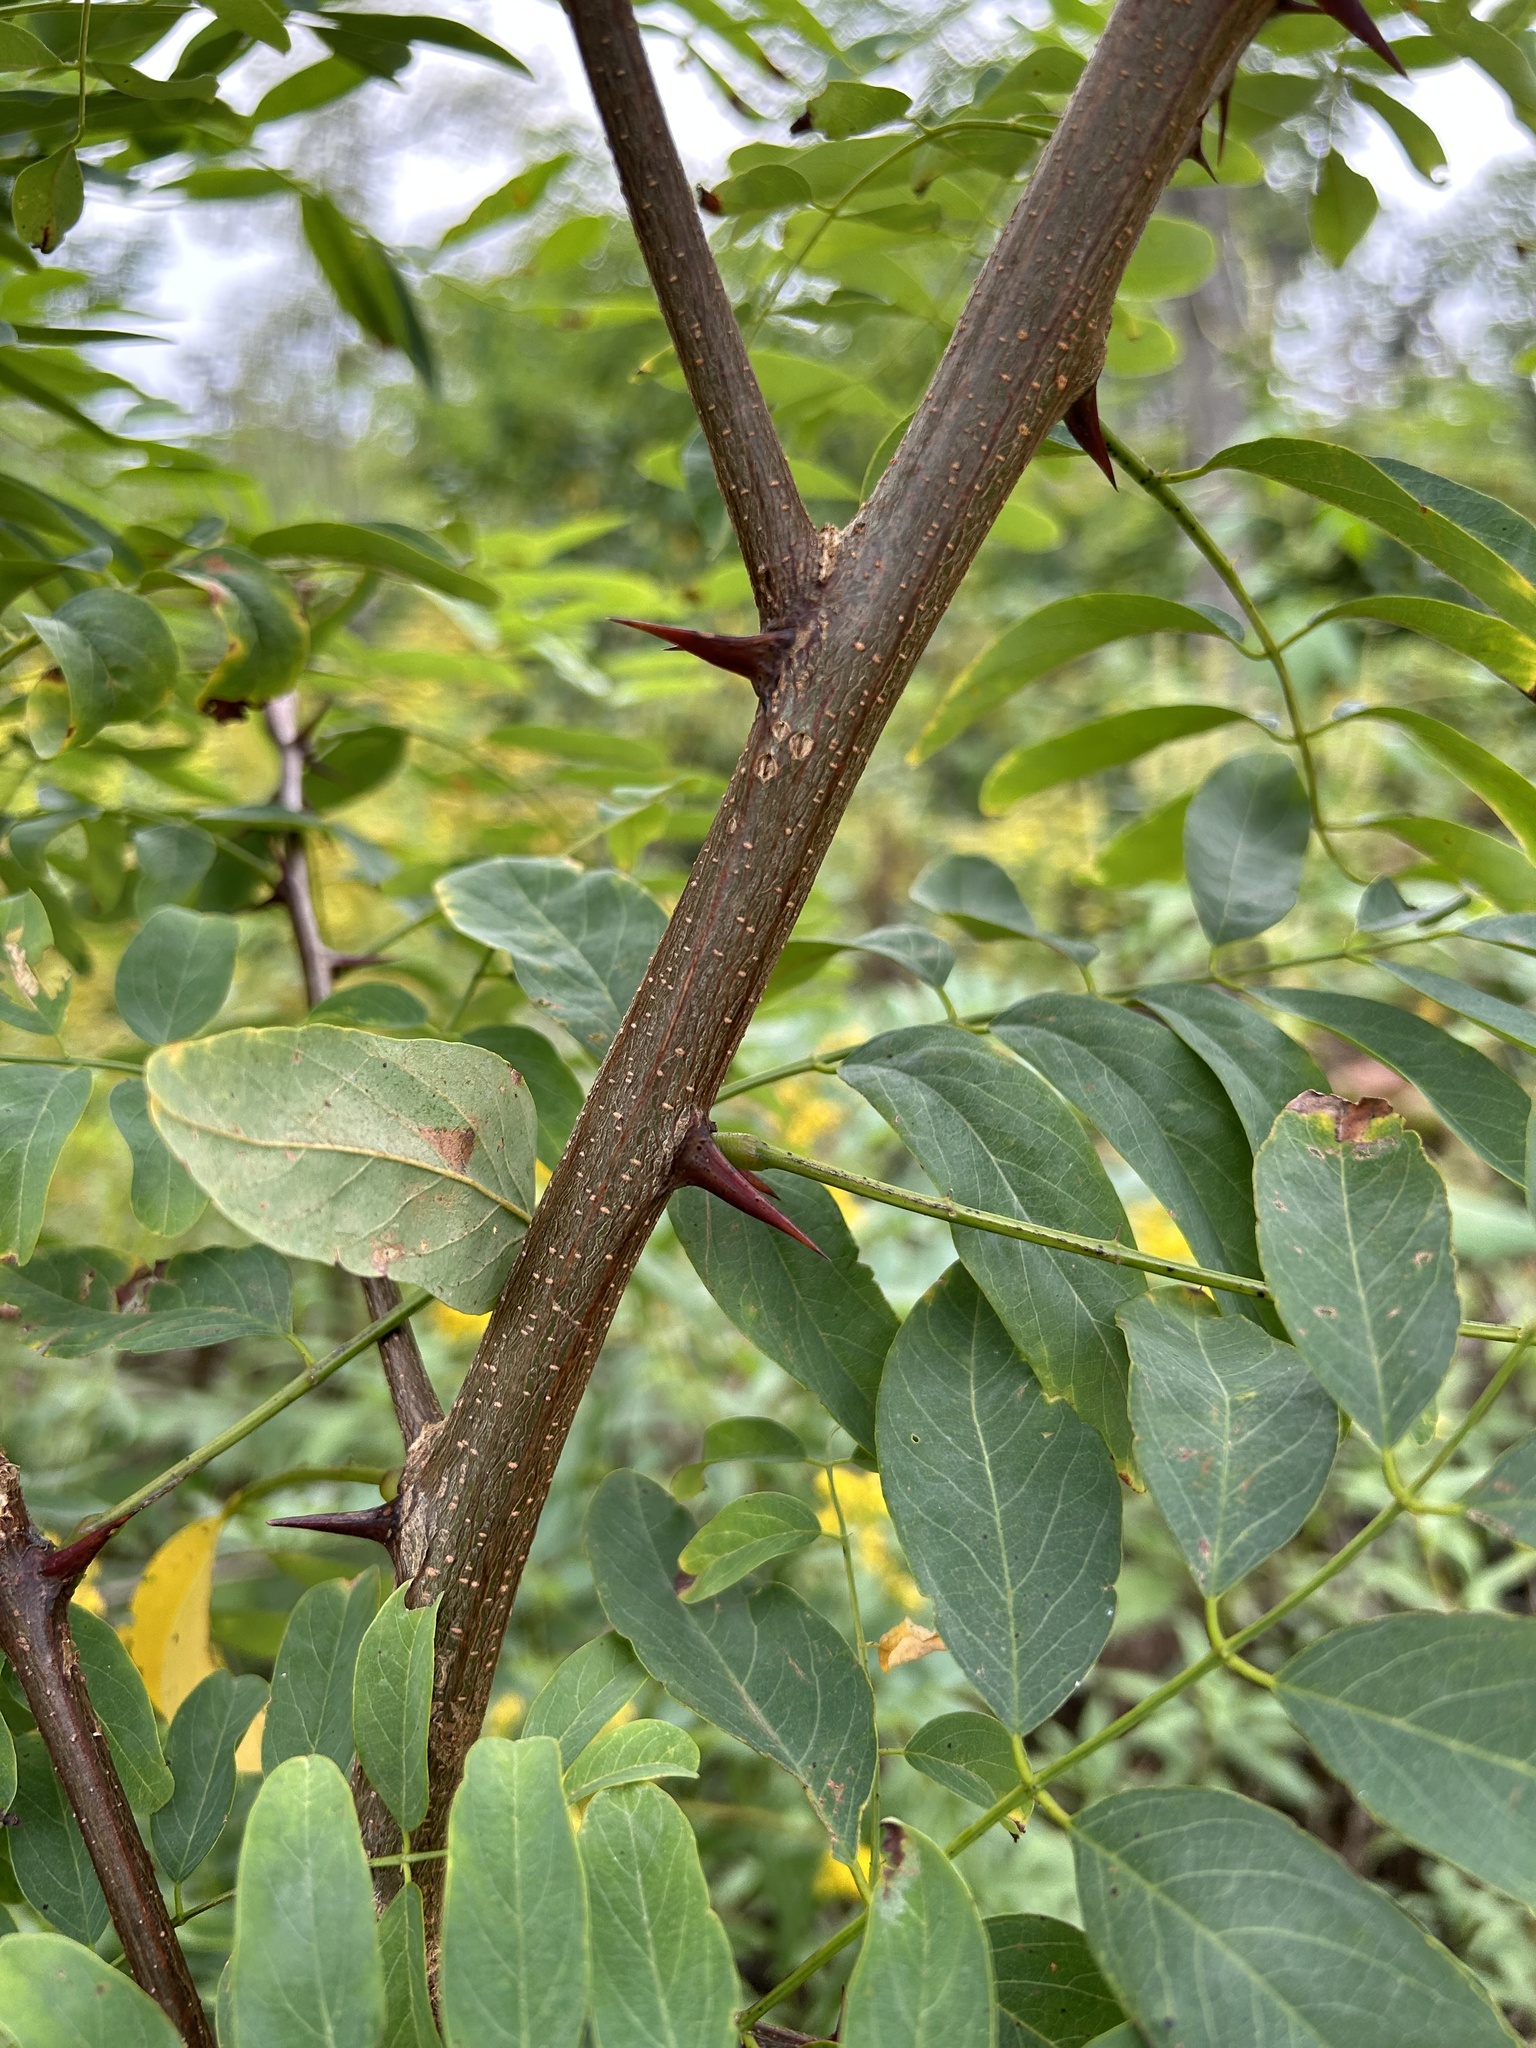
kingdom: Plantae
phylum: Tracheophyta
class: Magnoliopsida
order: Fabales
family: Fabaceae
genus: Robinia
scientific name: Robinia pseudoacacia
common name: Black locust
